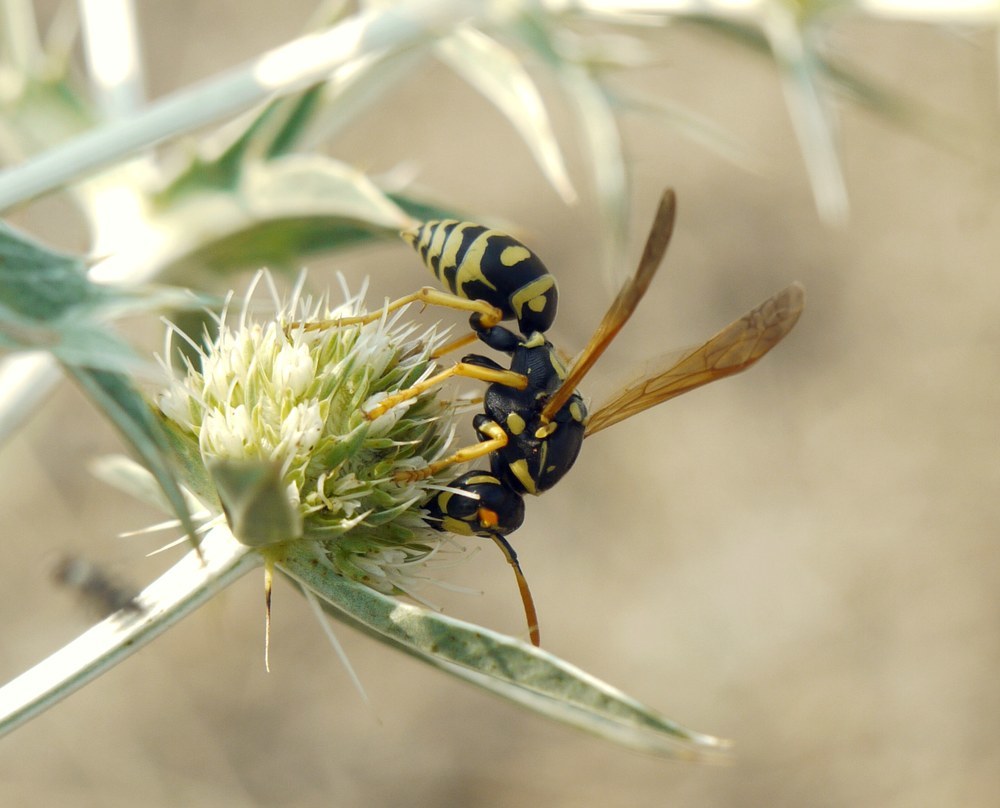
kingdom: Animalia
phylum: Arthropoda
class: Insecta
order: Hymenoptera
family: Eumenidae
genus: Polistes
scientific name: Polistes dominula
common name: Paper wasp
